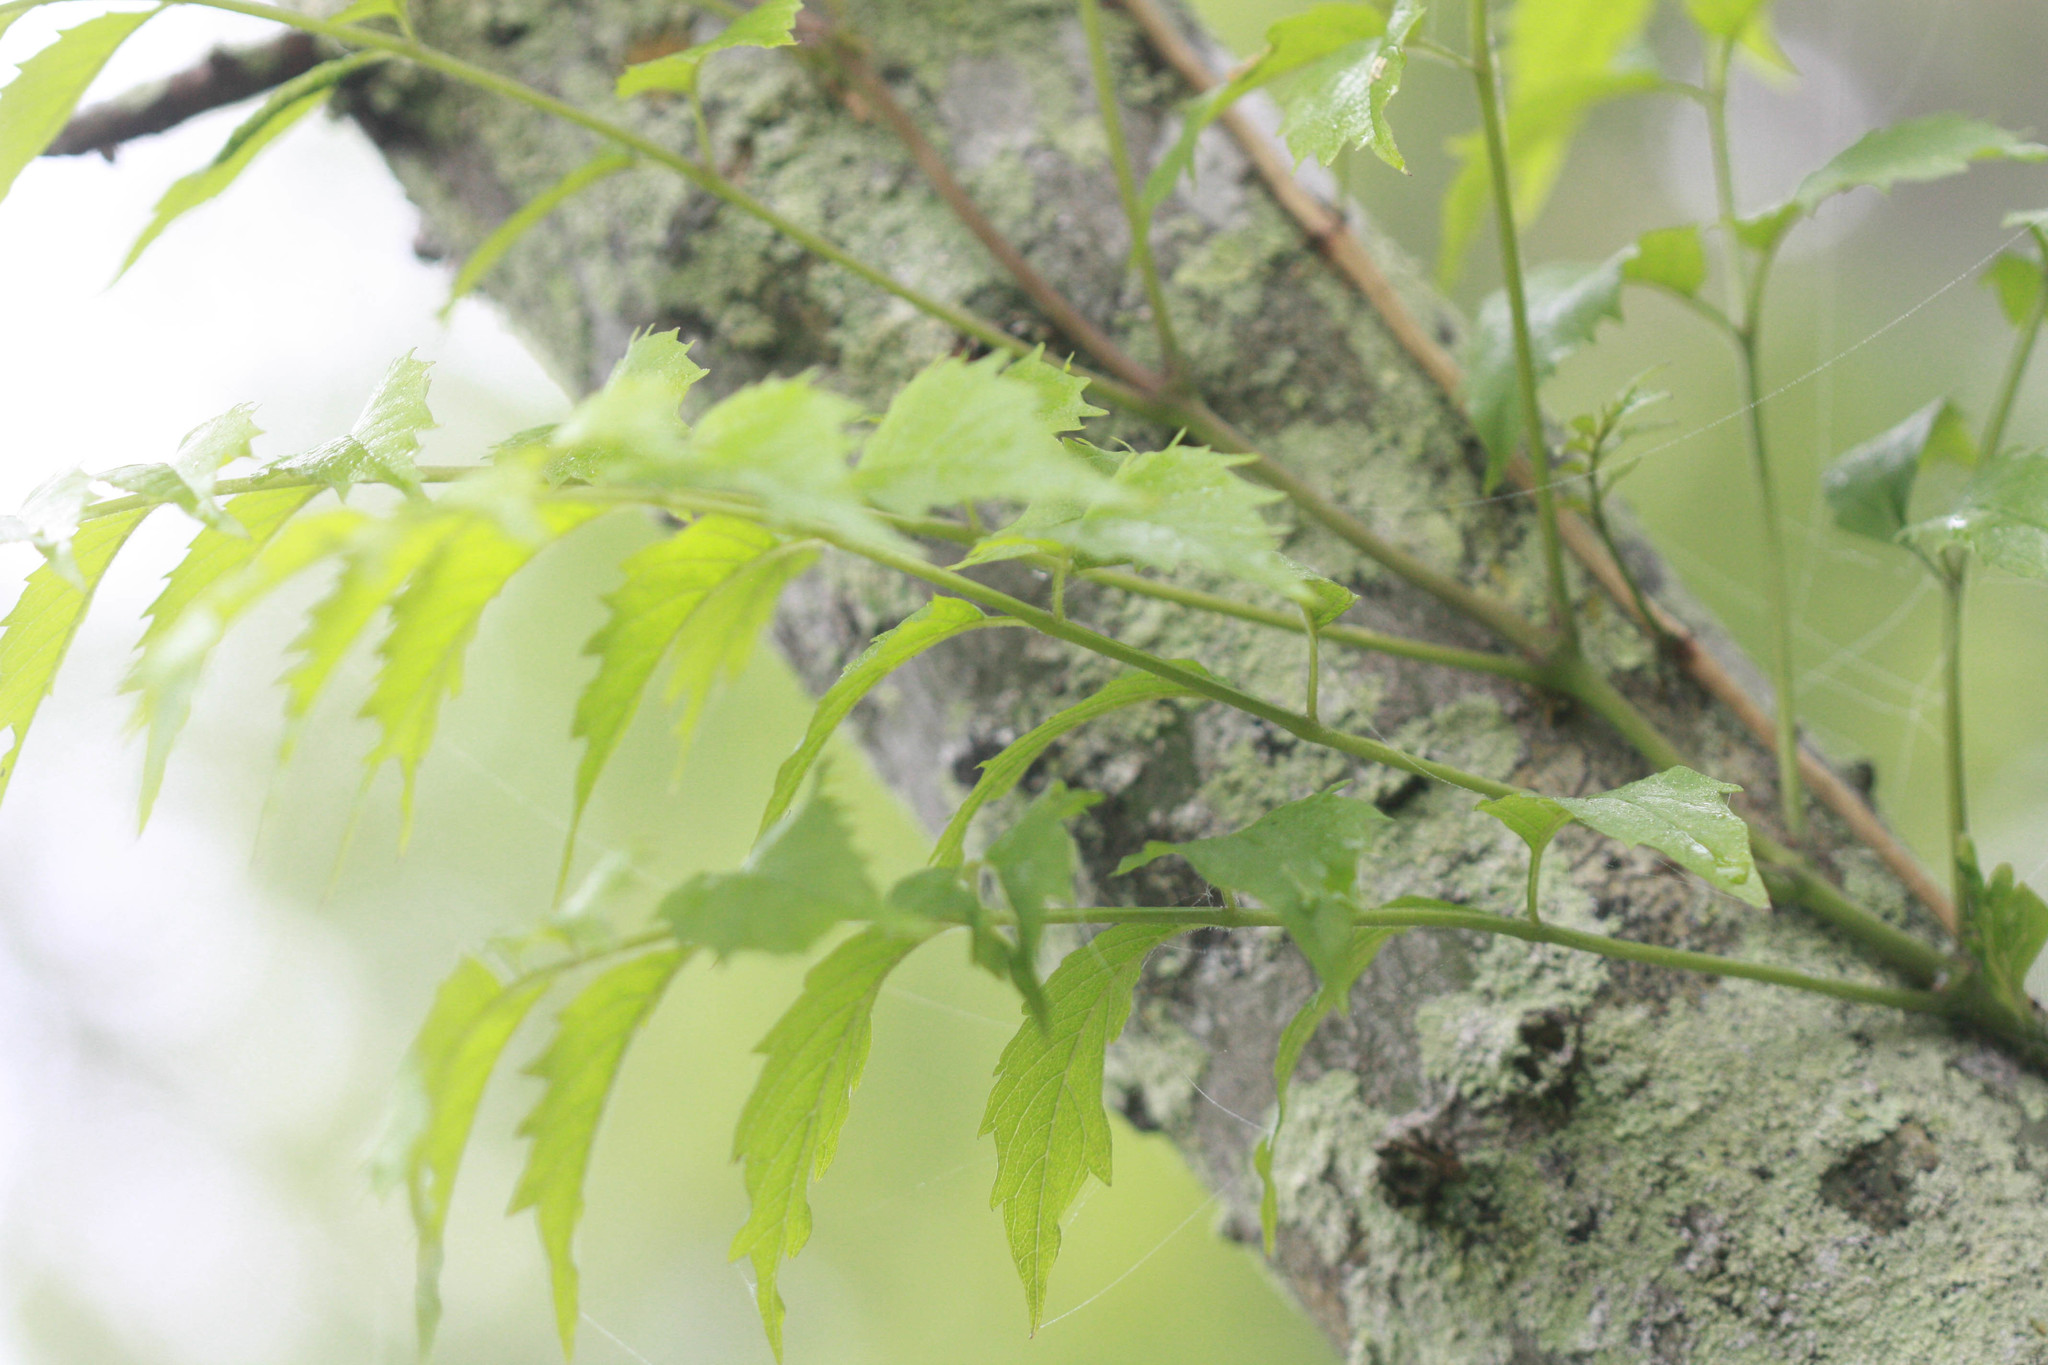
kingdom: Plantae
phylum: Tracheophyta
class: Magnoliopsida
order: Lamiales
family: Bignoniaceae
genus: Campsis
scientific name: Campsis radicans
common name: Trumpet-creeper
